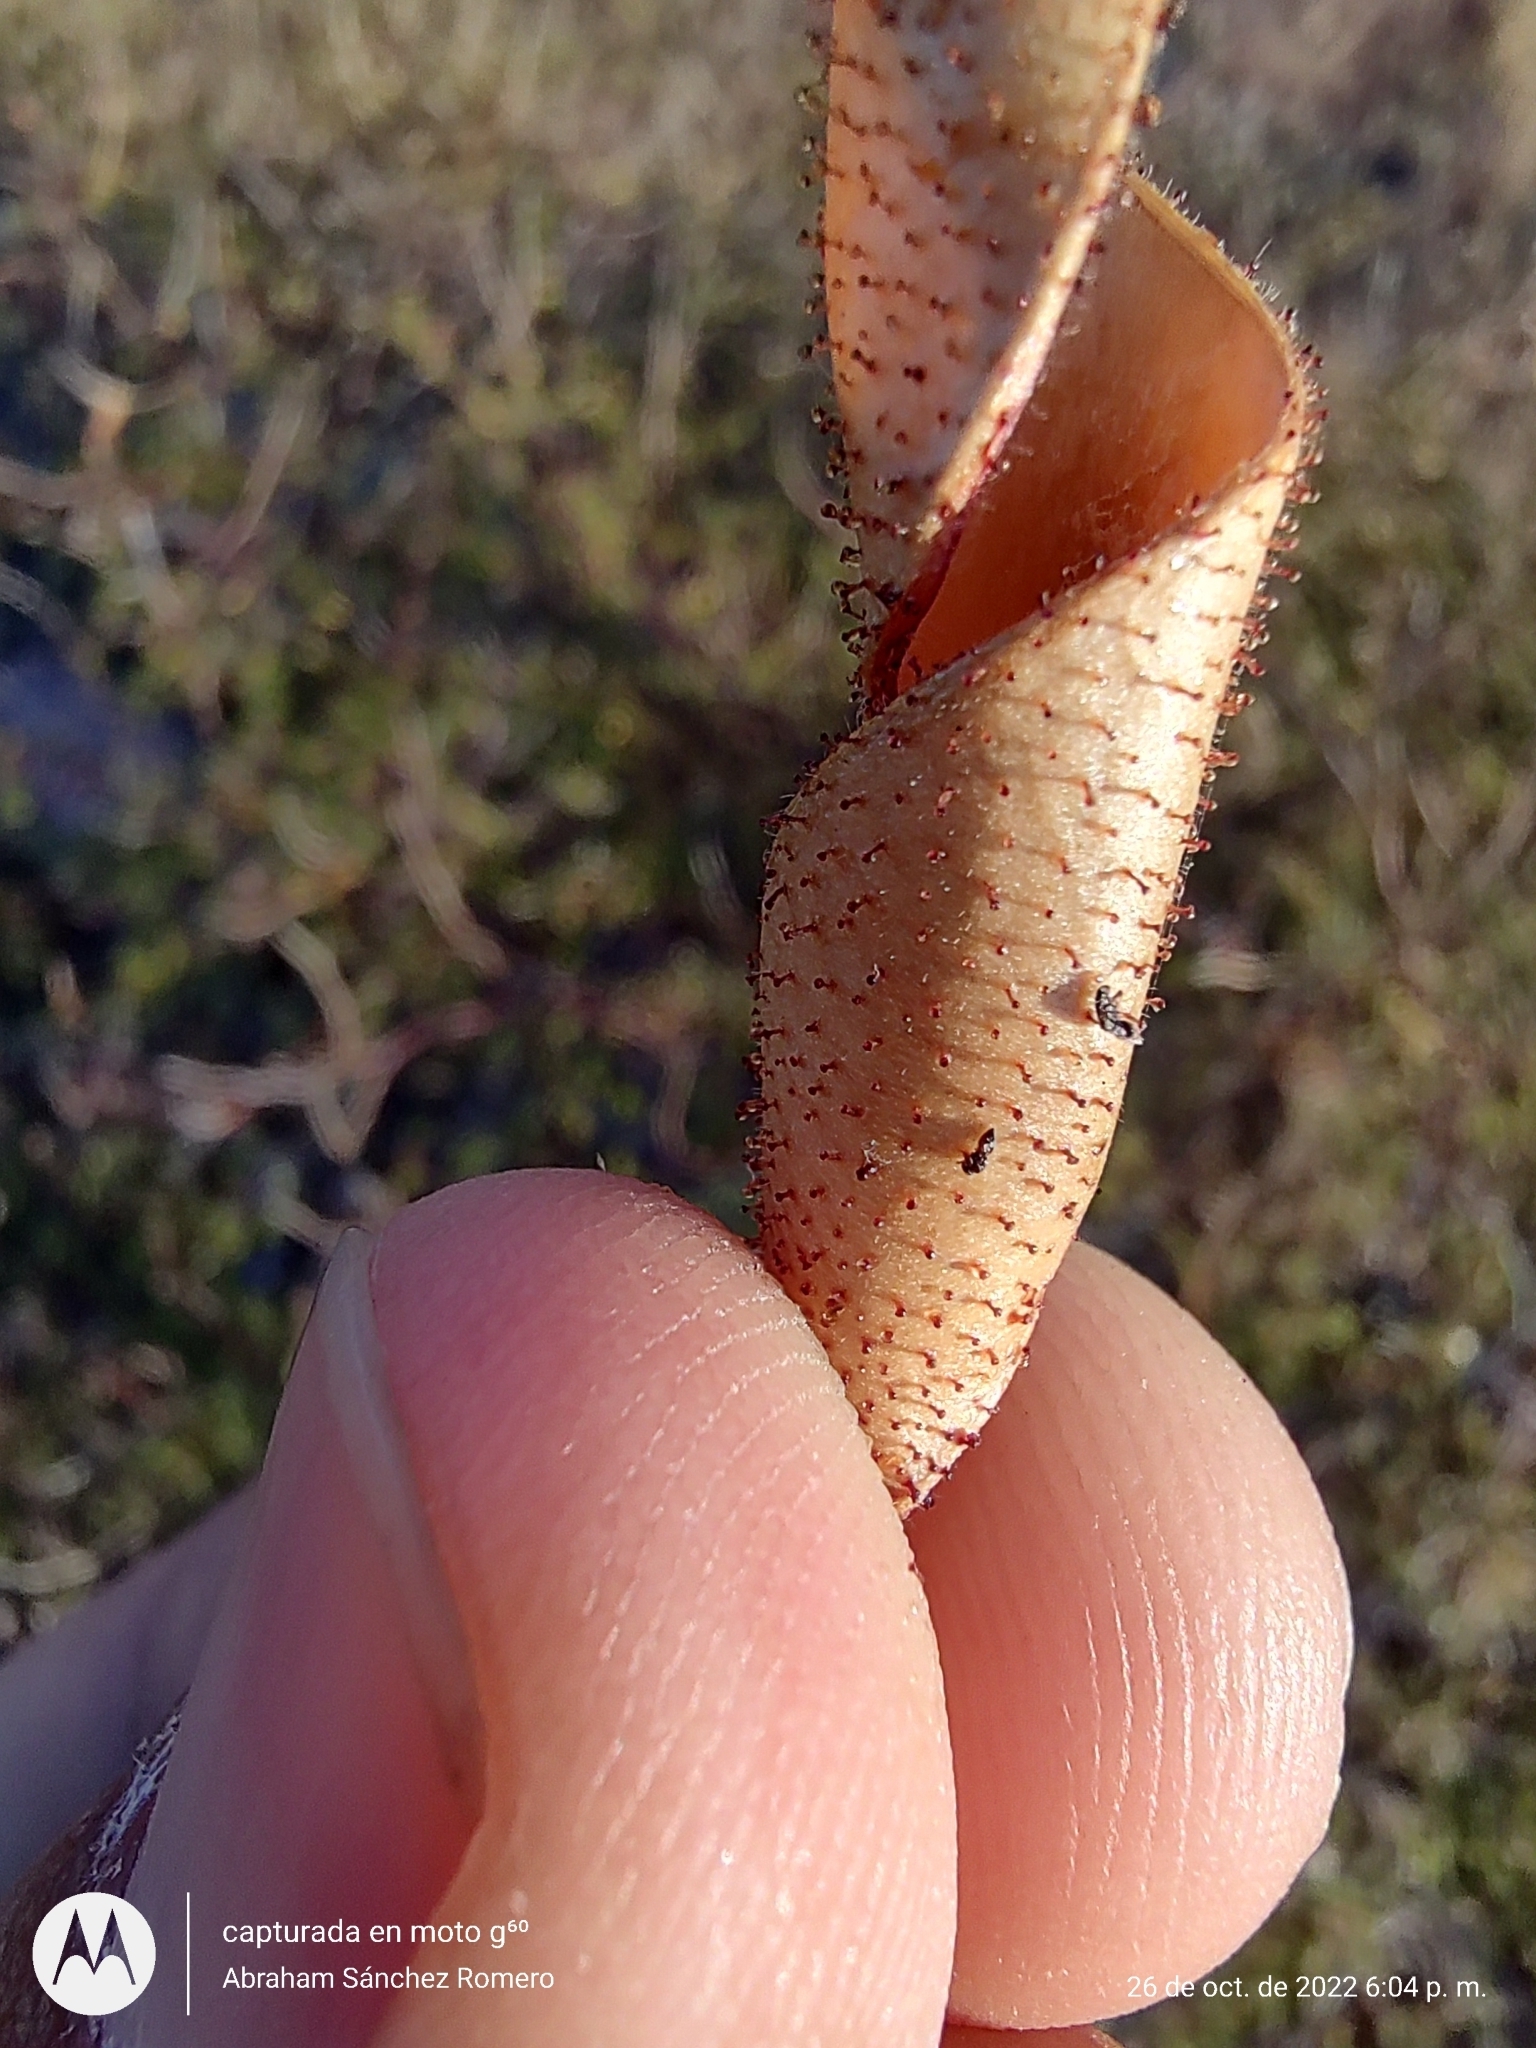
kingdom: Plantae
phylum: Tracheophyta
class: Magnoliopsida
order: Fabales
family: Fabaceae
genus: Erythrostemon
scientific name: Erythrostemon placidus
